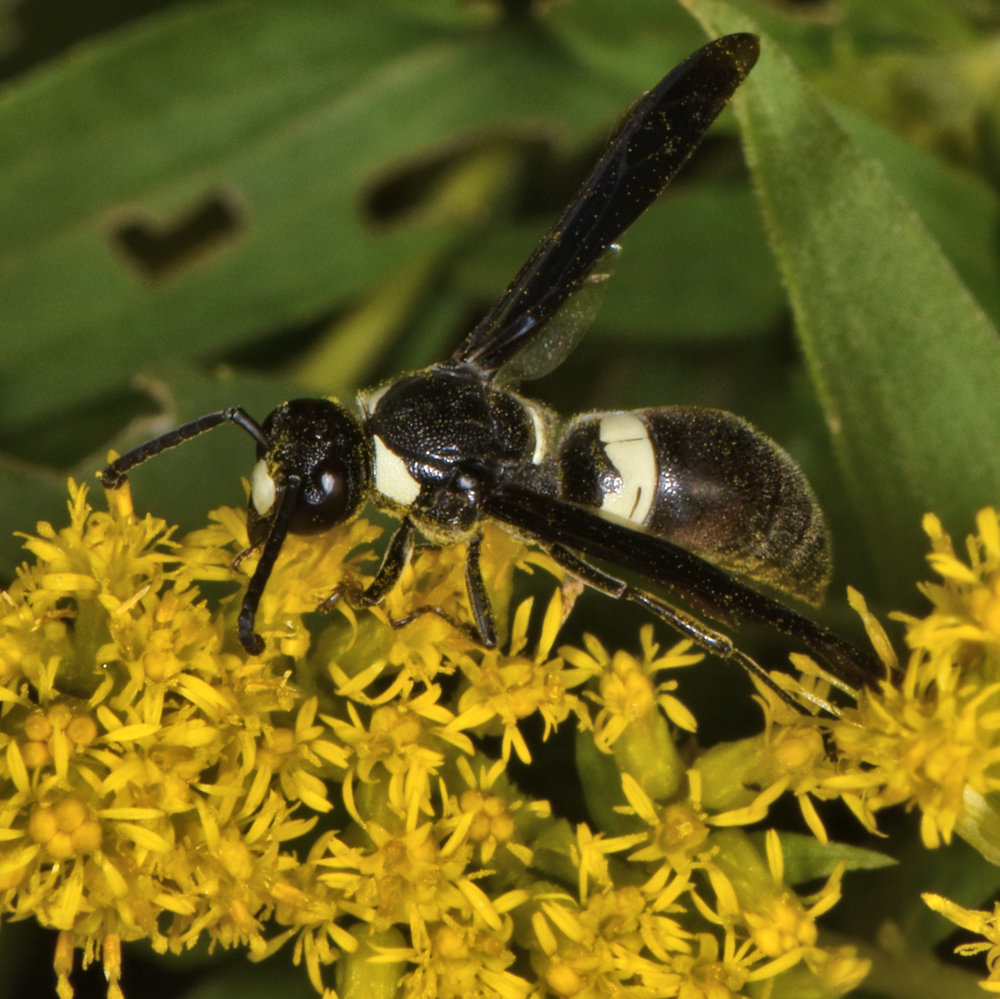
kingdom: Animalia
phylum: Arthropoda
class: Insecta
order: Hymenoptera
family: Eumenidae
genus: Monobia
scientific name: Monobia quadridens
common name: Four-toothed mason wasp
